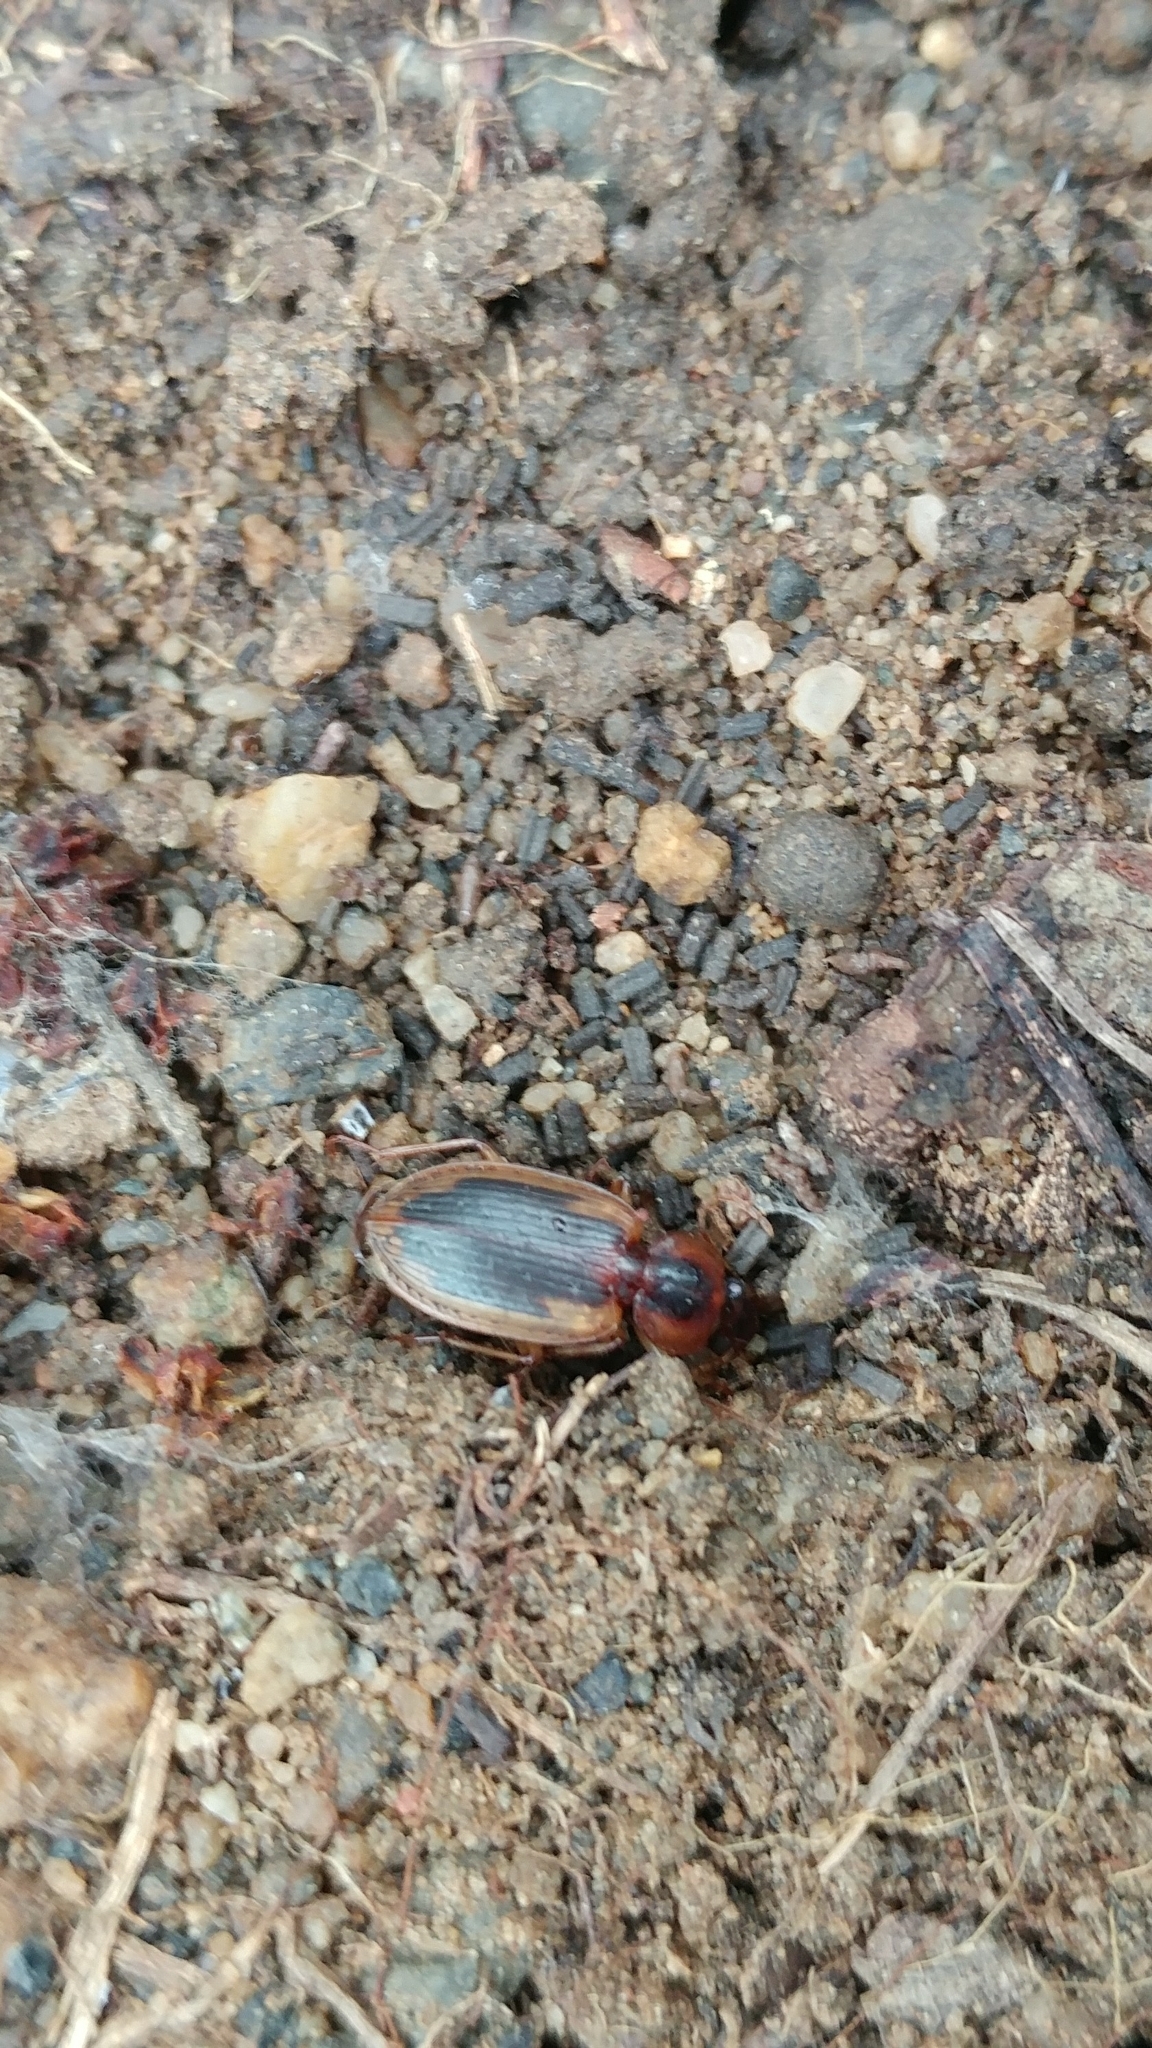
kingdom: Animalia
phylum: Arthropoda
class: Insecta
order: Coleoptera
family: Carabidae
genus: Tanystoma
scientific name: Tanystoma maculicolle
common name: Tule beetle
